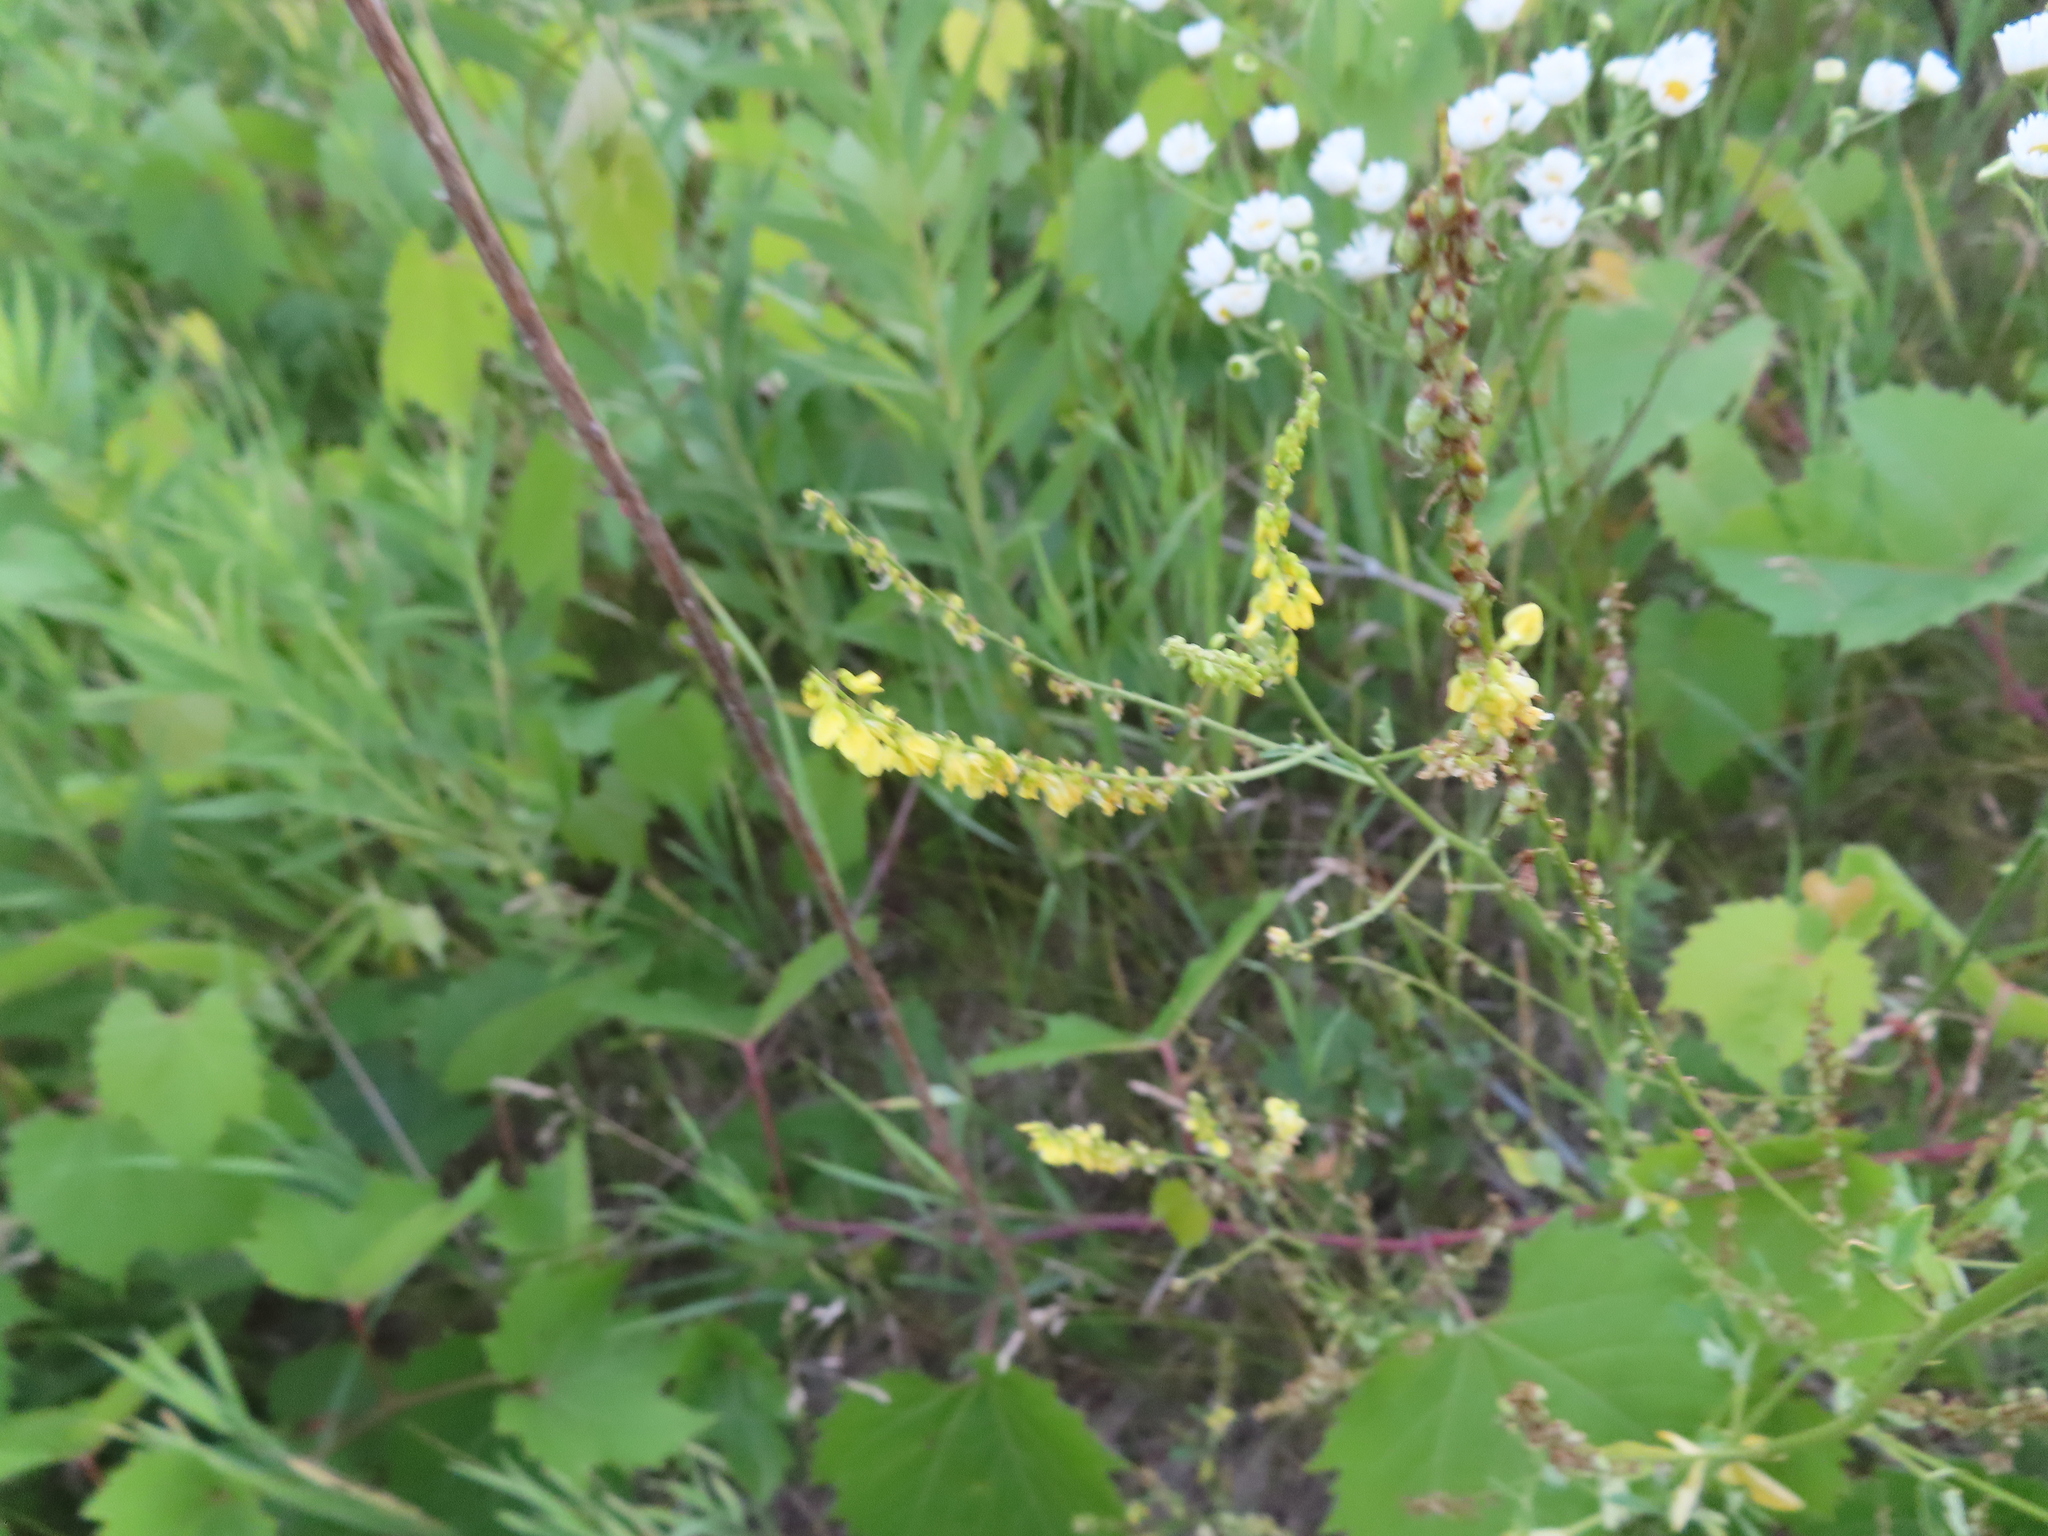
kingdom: Plantae
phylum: Tracheophyta
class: Magnoliopsida
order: Fabales
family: Fabaceae
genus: Melilotus
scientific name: Melilotus officinalis
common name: Sweetclover
